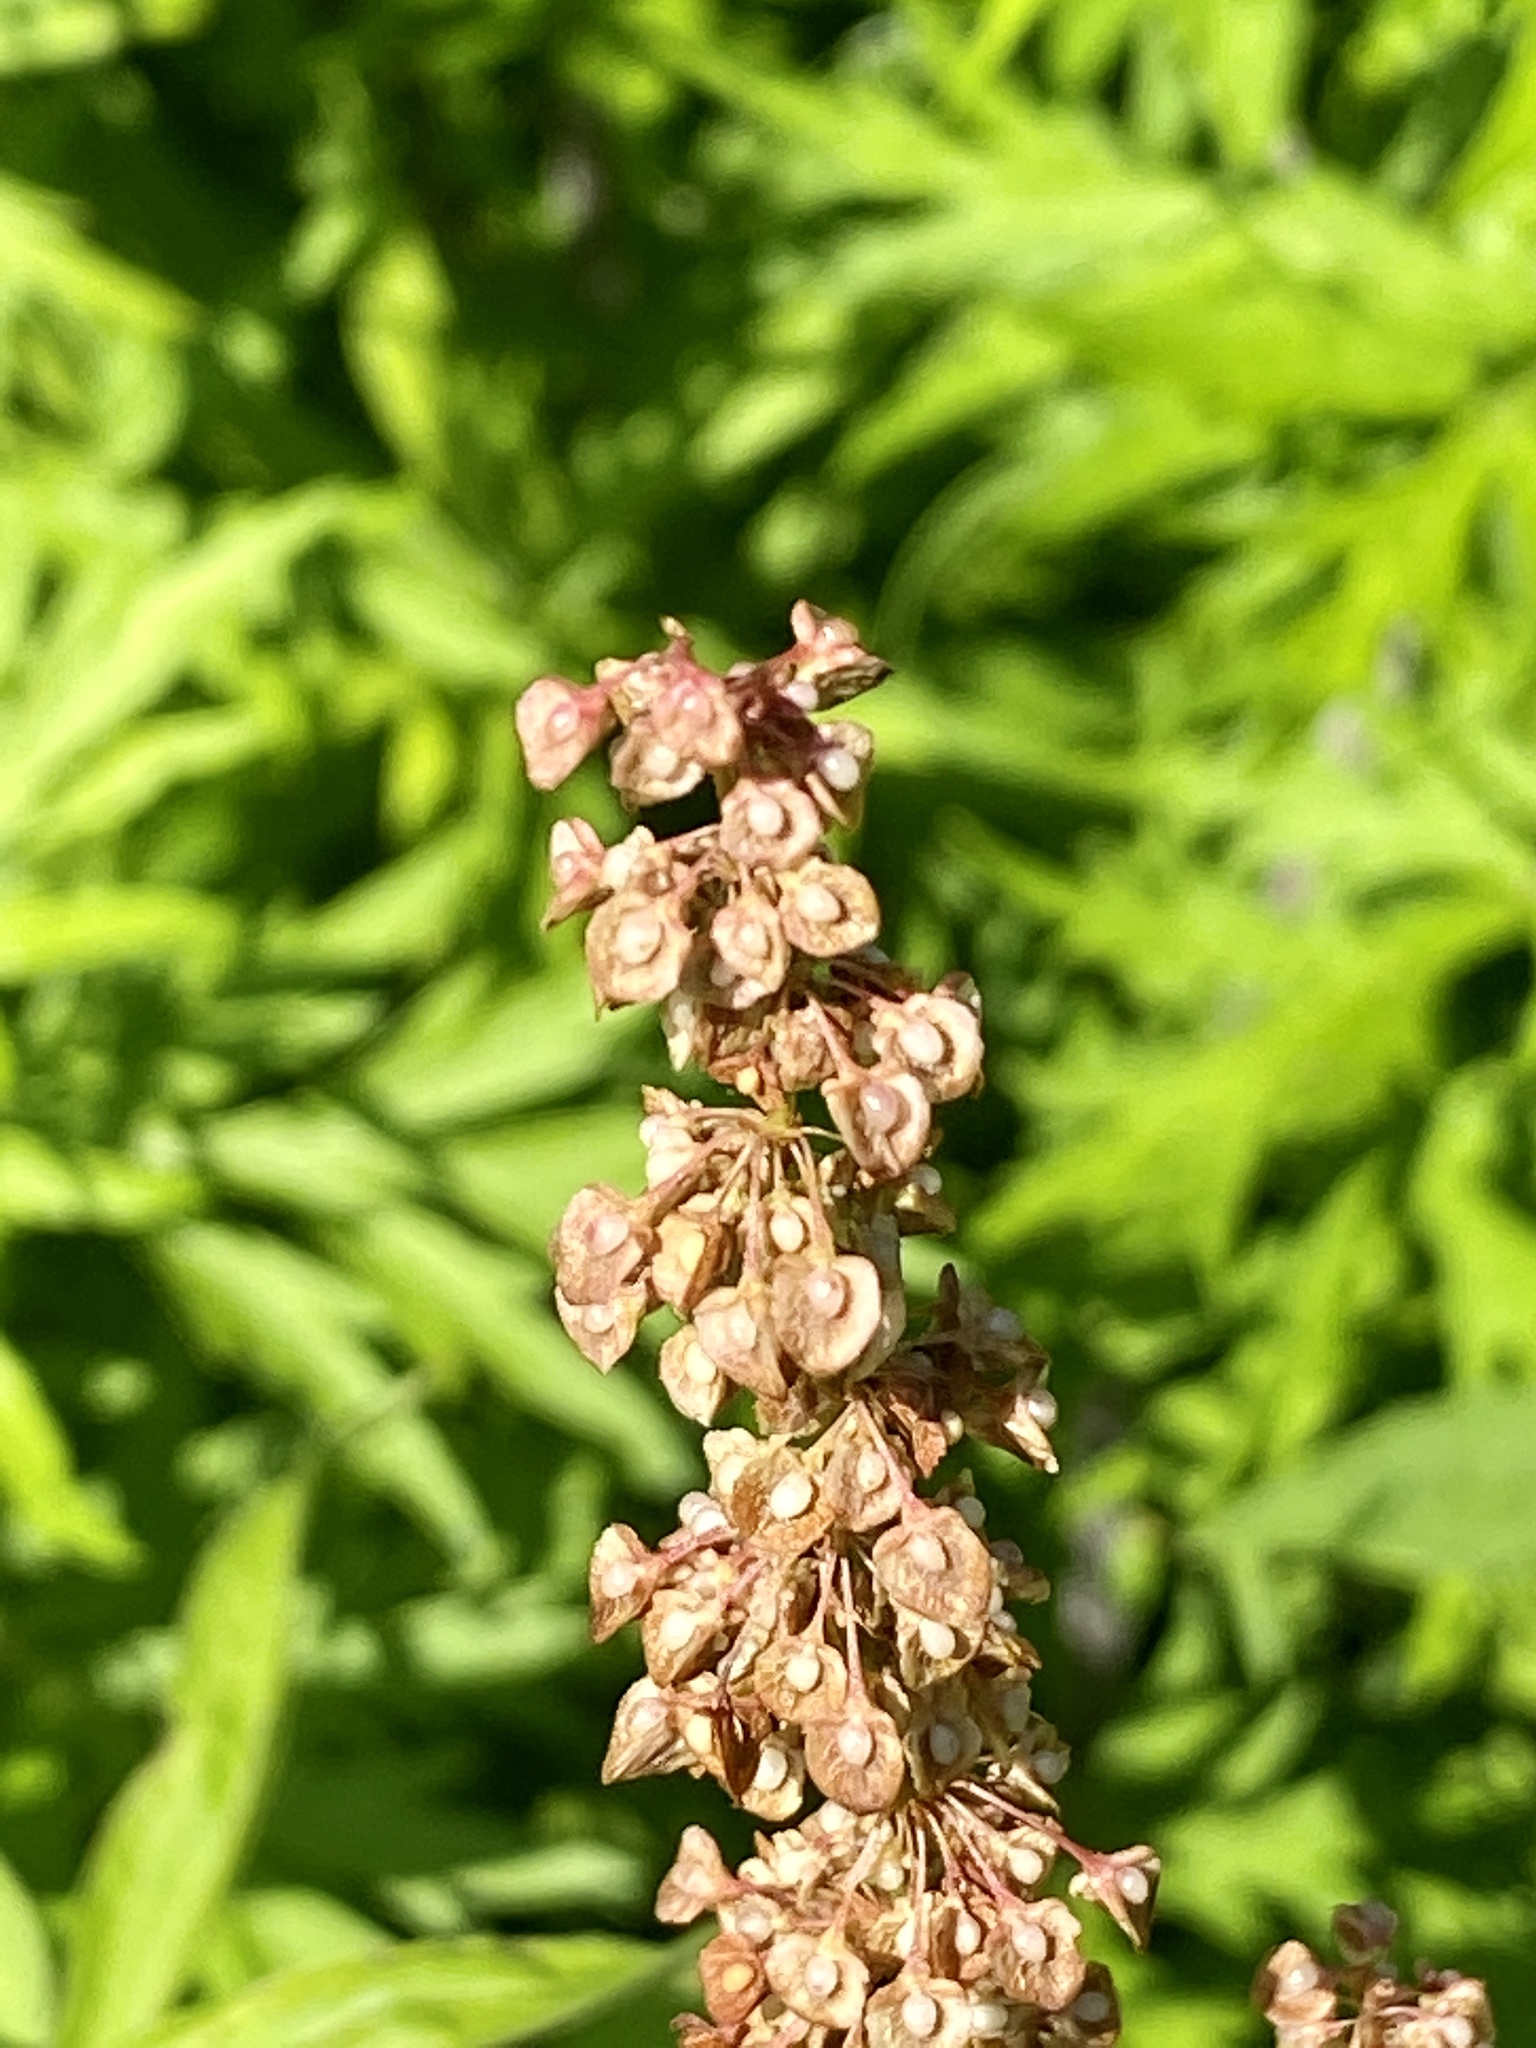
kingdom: Plantae
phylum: Tracheophyta
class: Magnoliopsida
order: Caryophyllales
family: Polygonaceae
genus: Rumex
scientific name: Rumex crispus
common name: Curled dock
